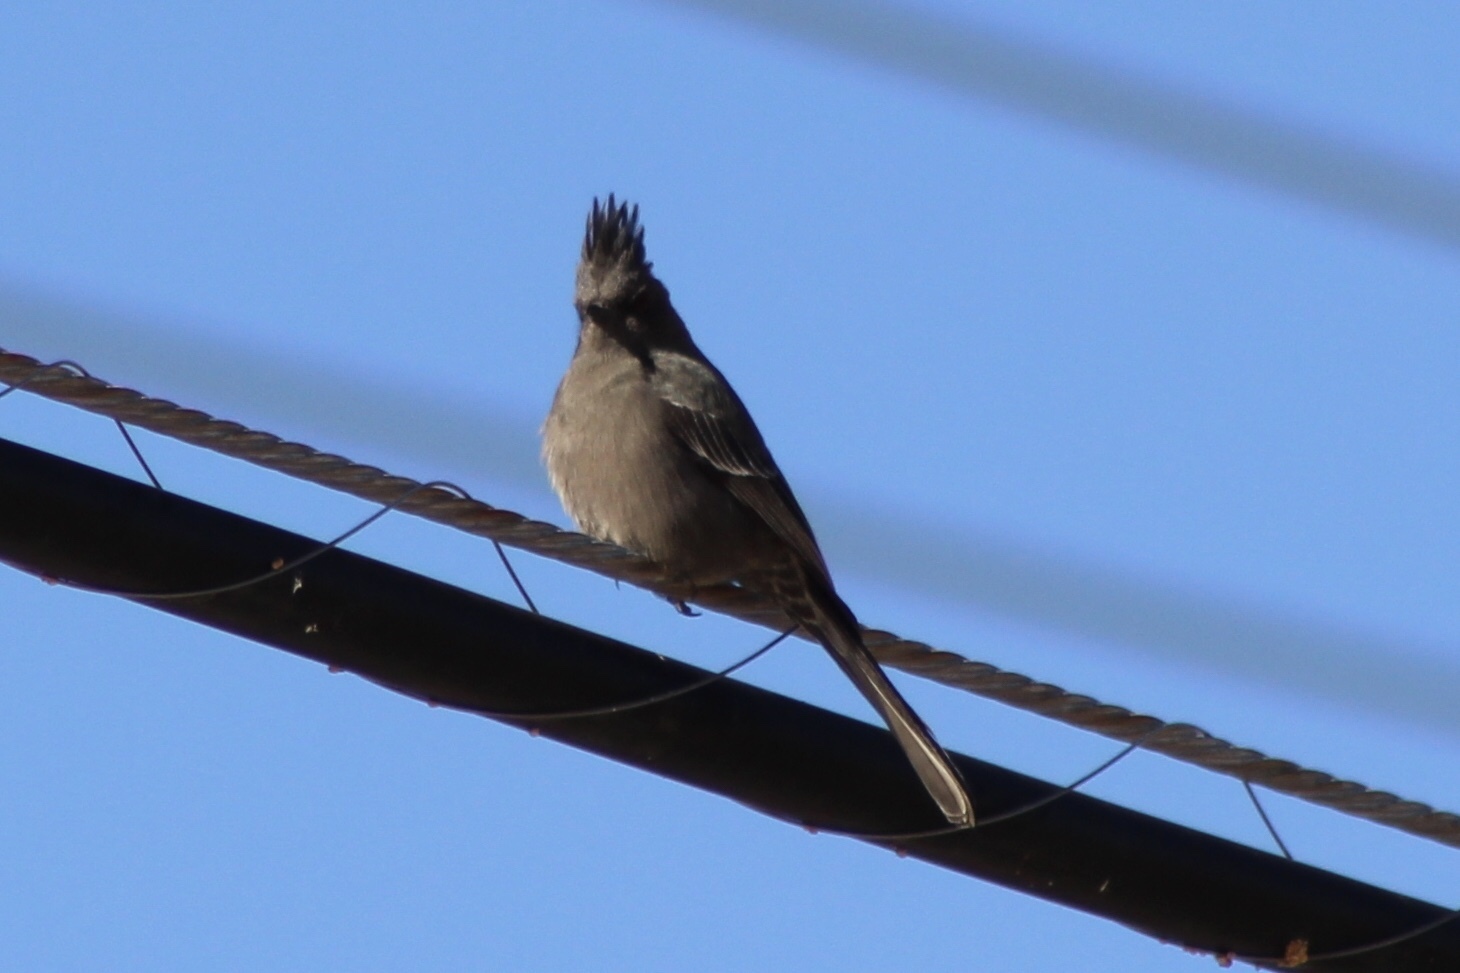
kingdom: Animalia
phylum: Chordata
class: Aves
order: Passeriformes
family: Ptilogonatidae
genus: Phainopepla
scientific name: Phainopepla nitens
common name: Phainopepla
